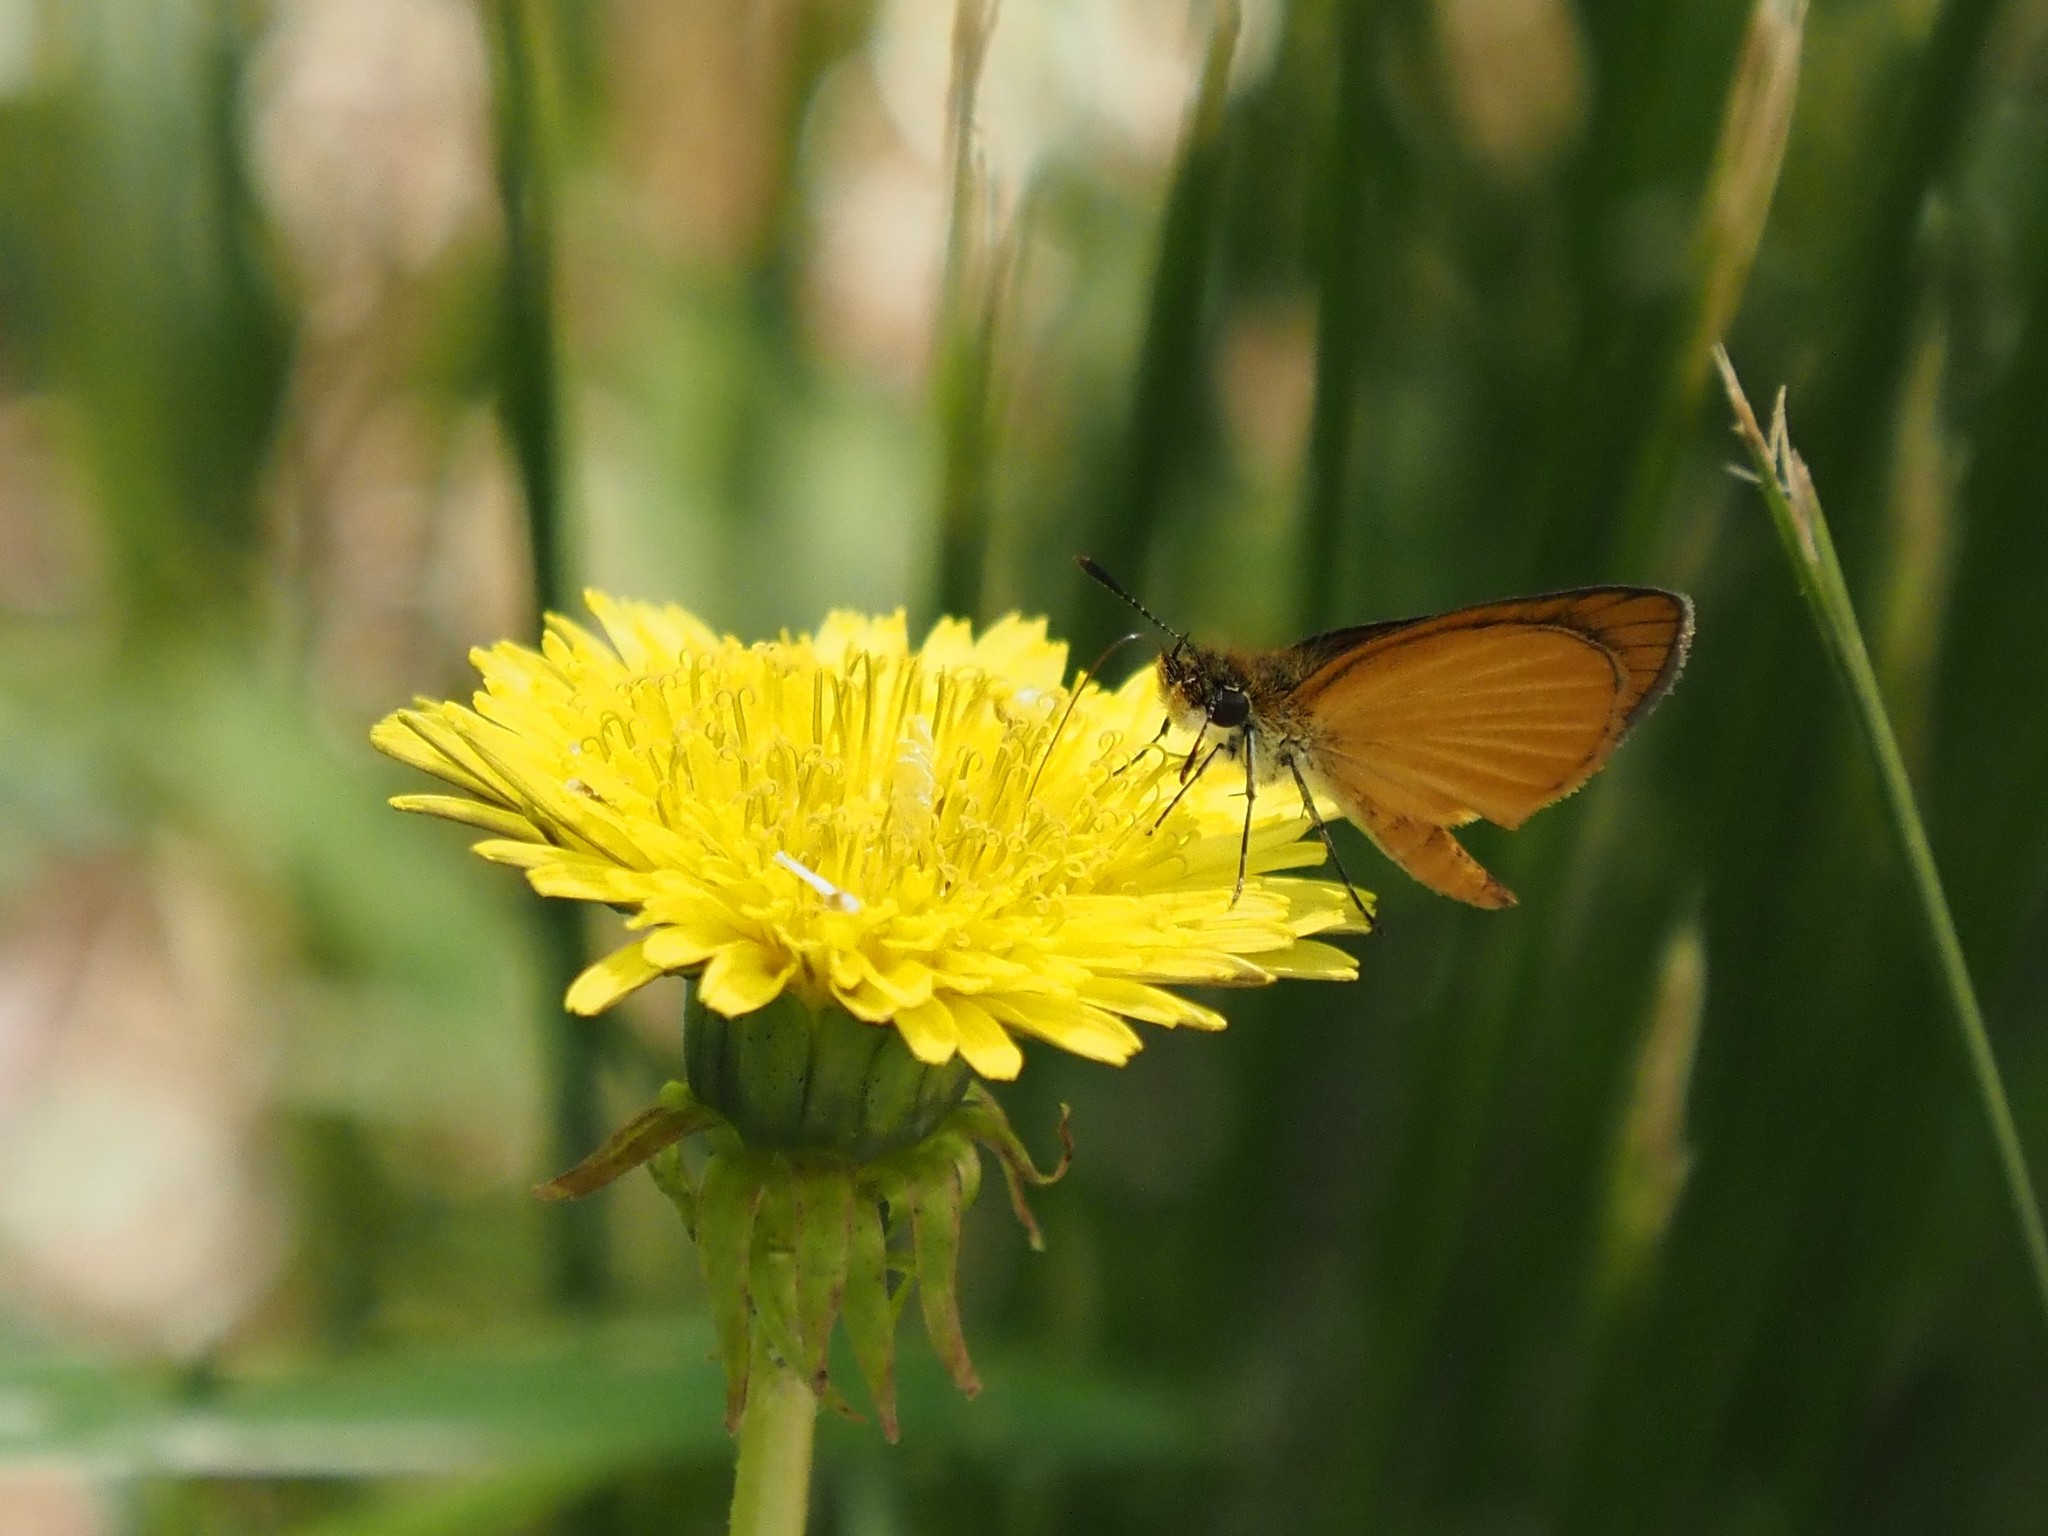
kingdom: Animalia
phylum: Arthropoda
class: Insecta
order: Lepidoptera
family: Hesperiidae
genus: Ancyloxypha
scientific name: Ancyloxypha numitor
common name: Least skipper
